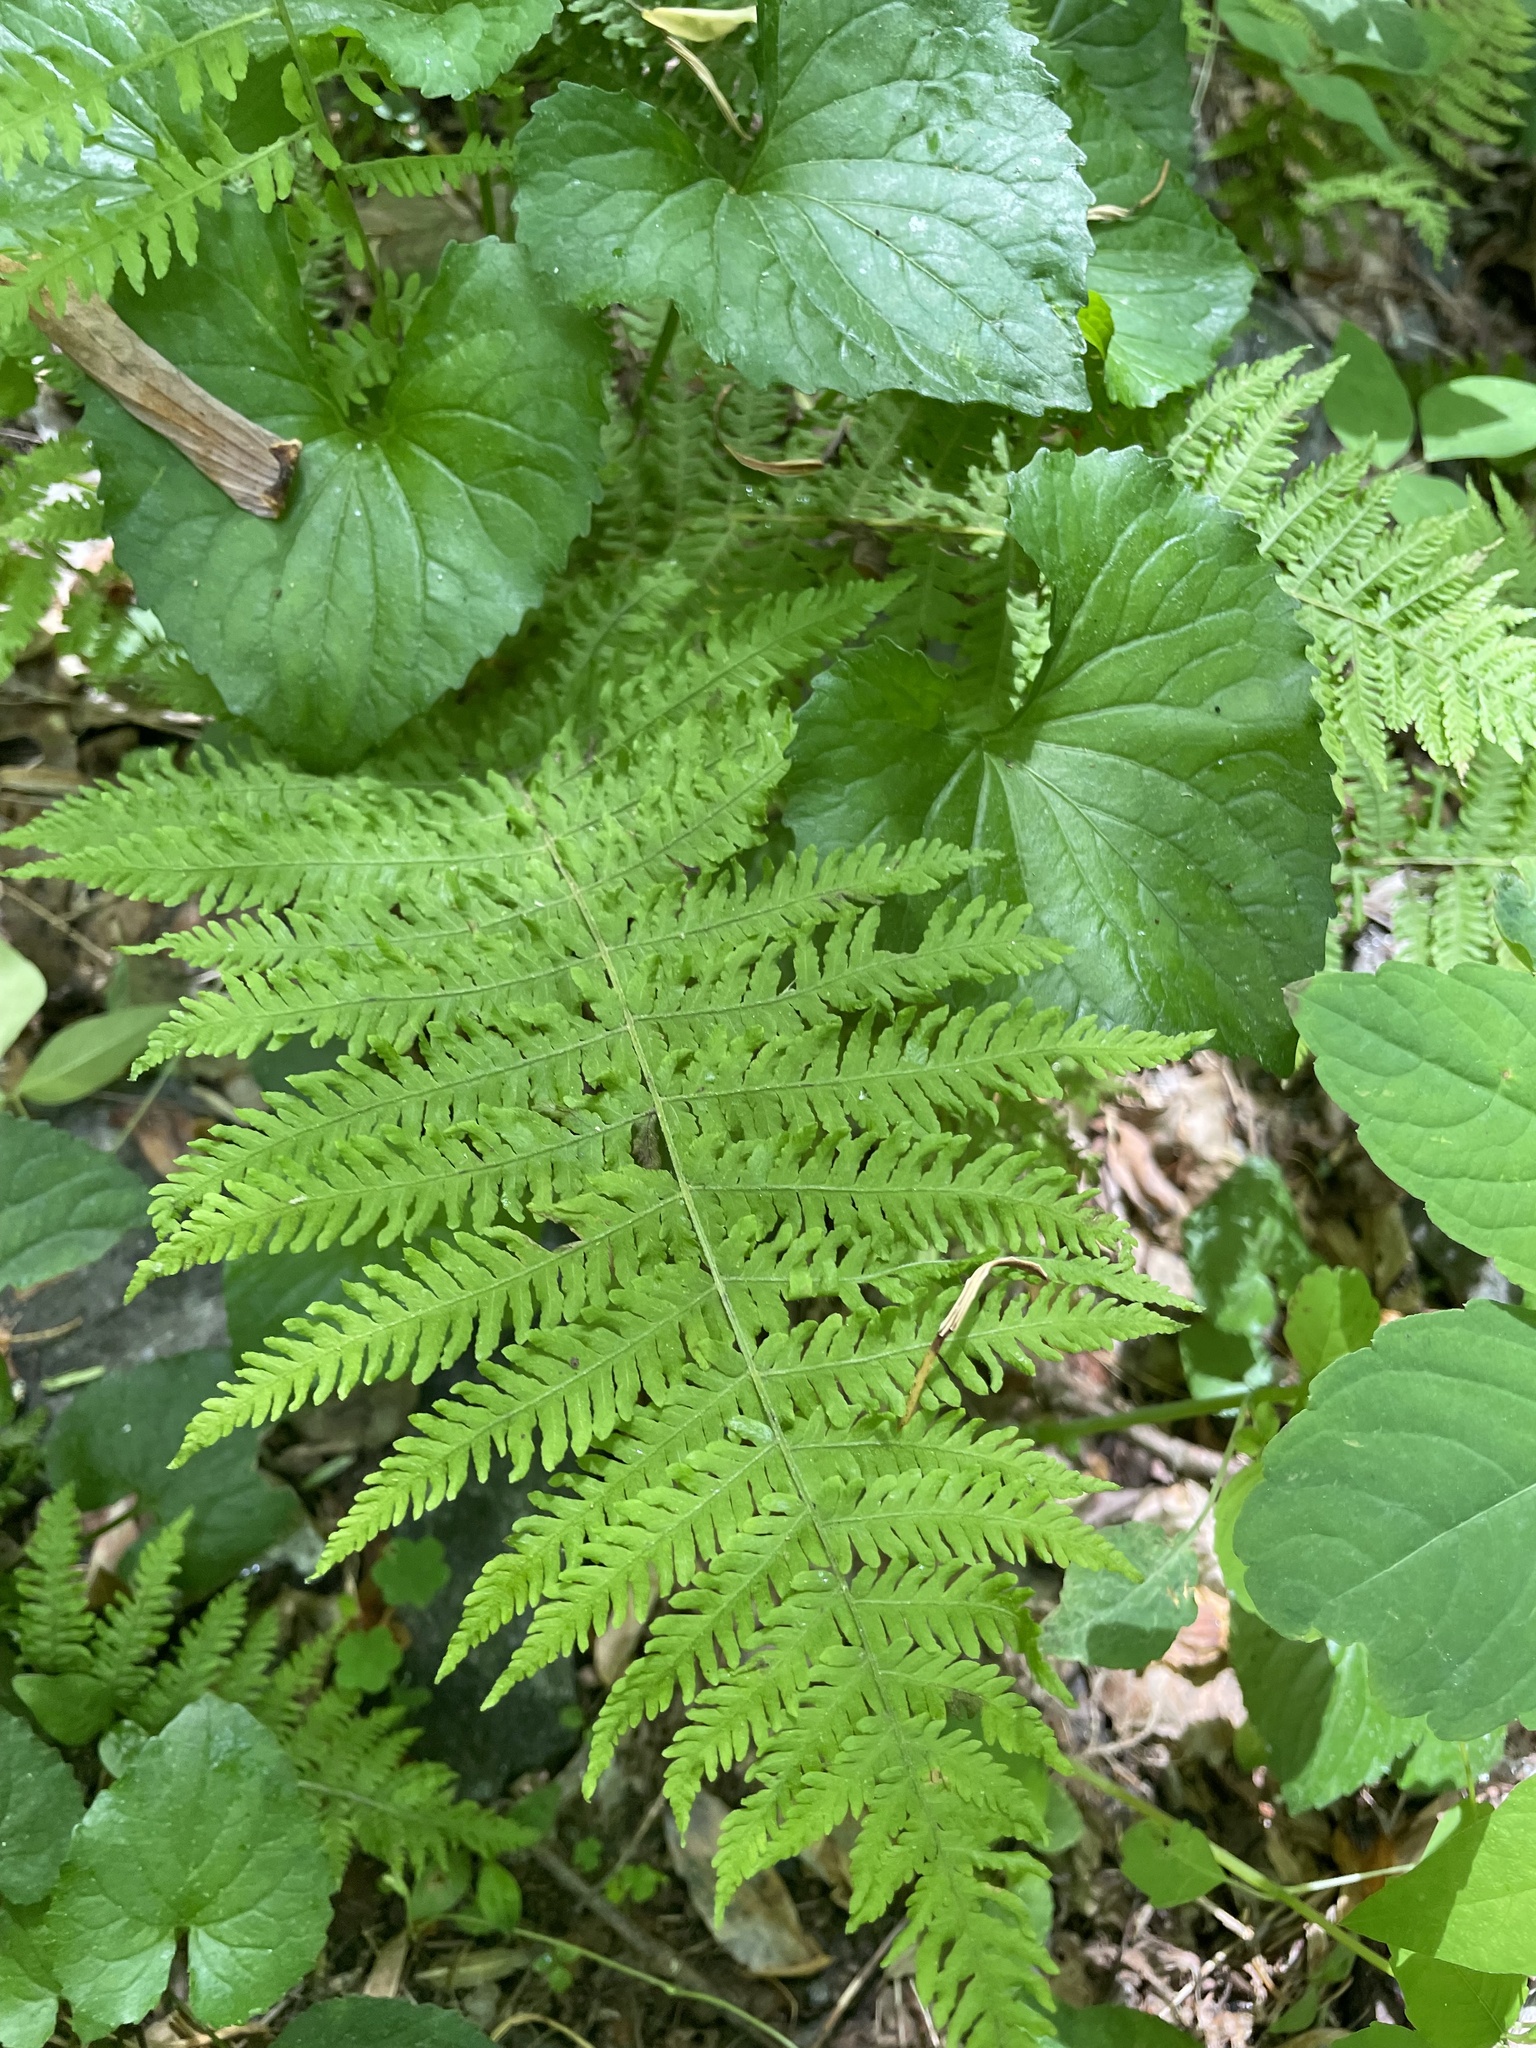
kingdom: Plantae
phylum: Tracheophyta
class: Polypodiopsida
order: Polypodiales
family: Dennstaedtiaceae
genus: Sitobolium
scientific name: Sitobolium punctilobum
